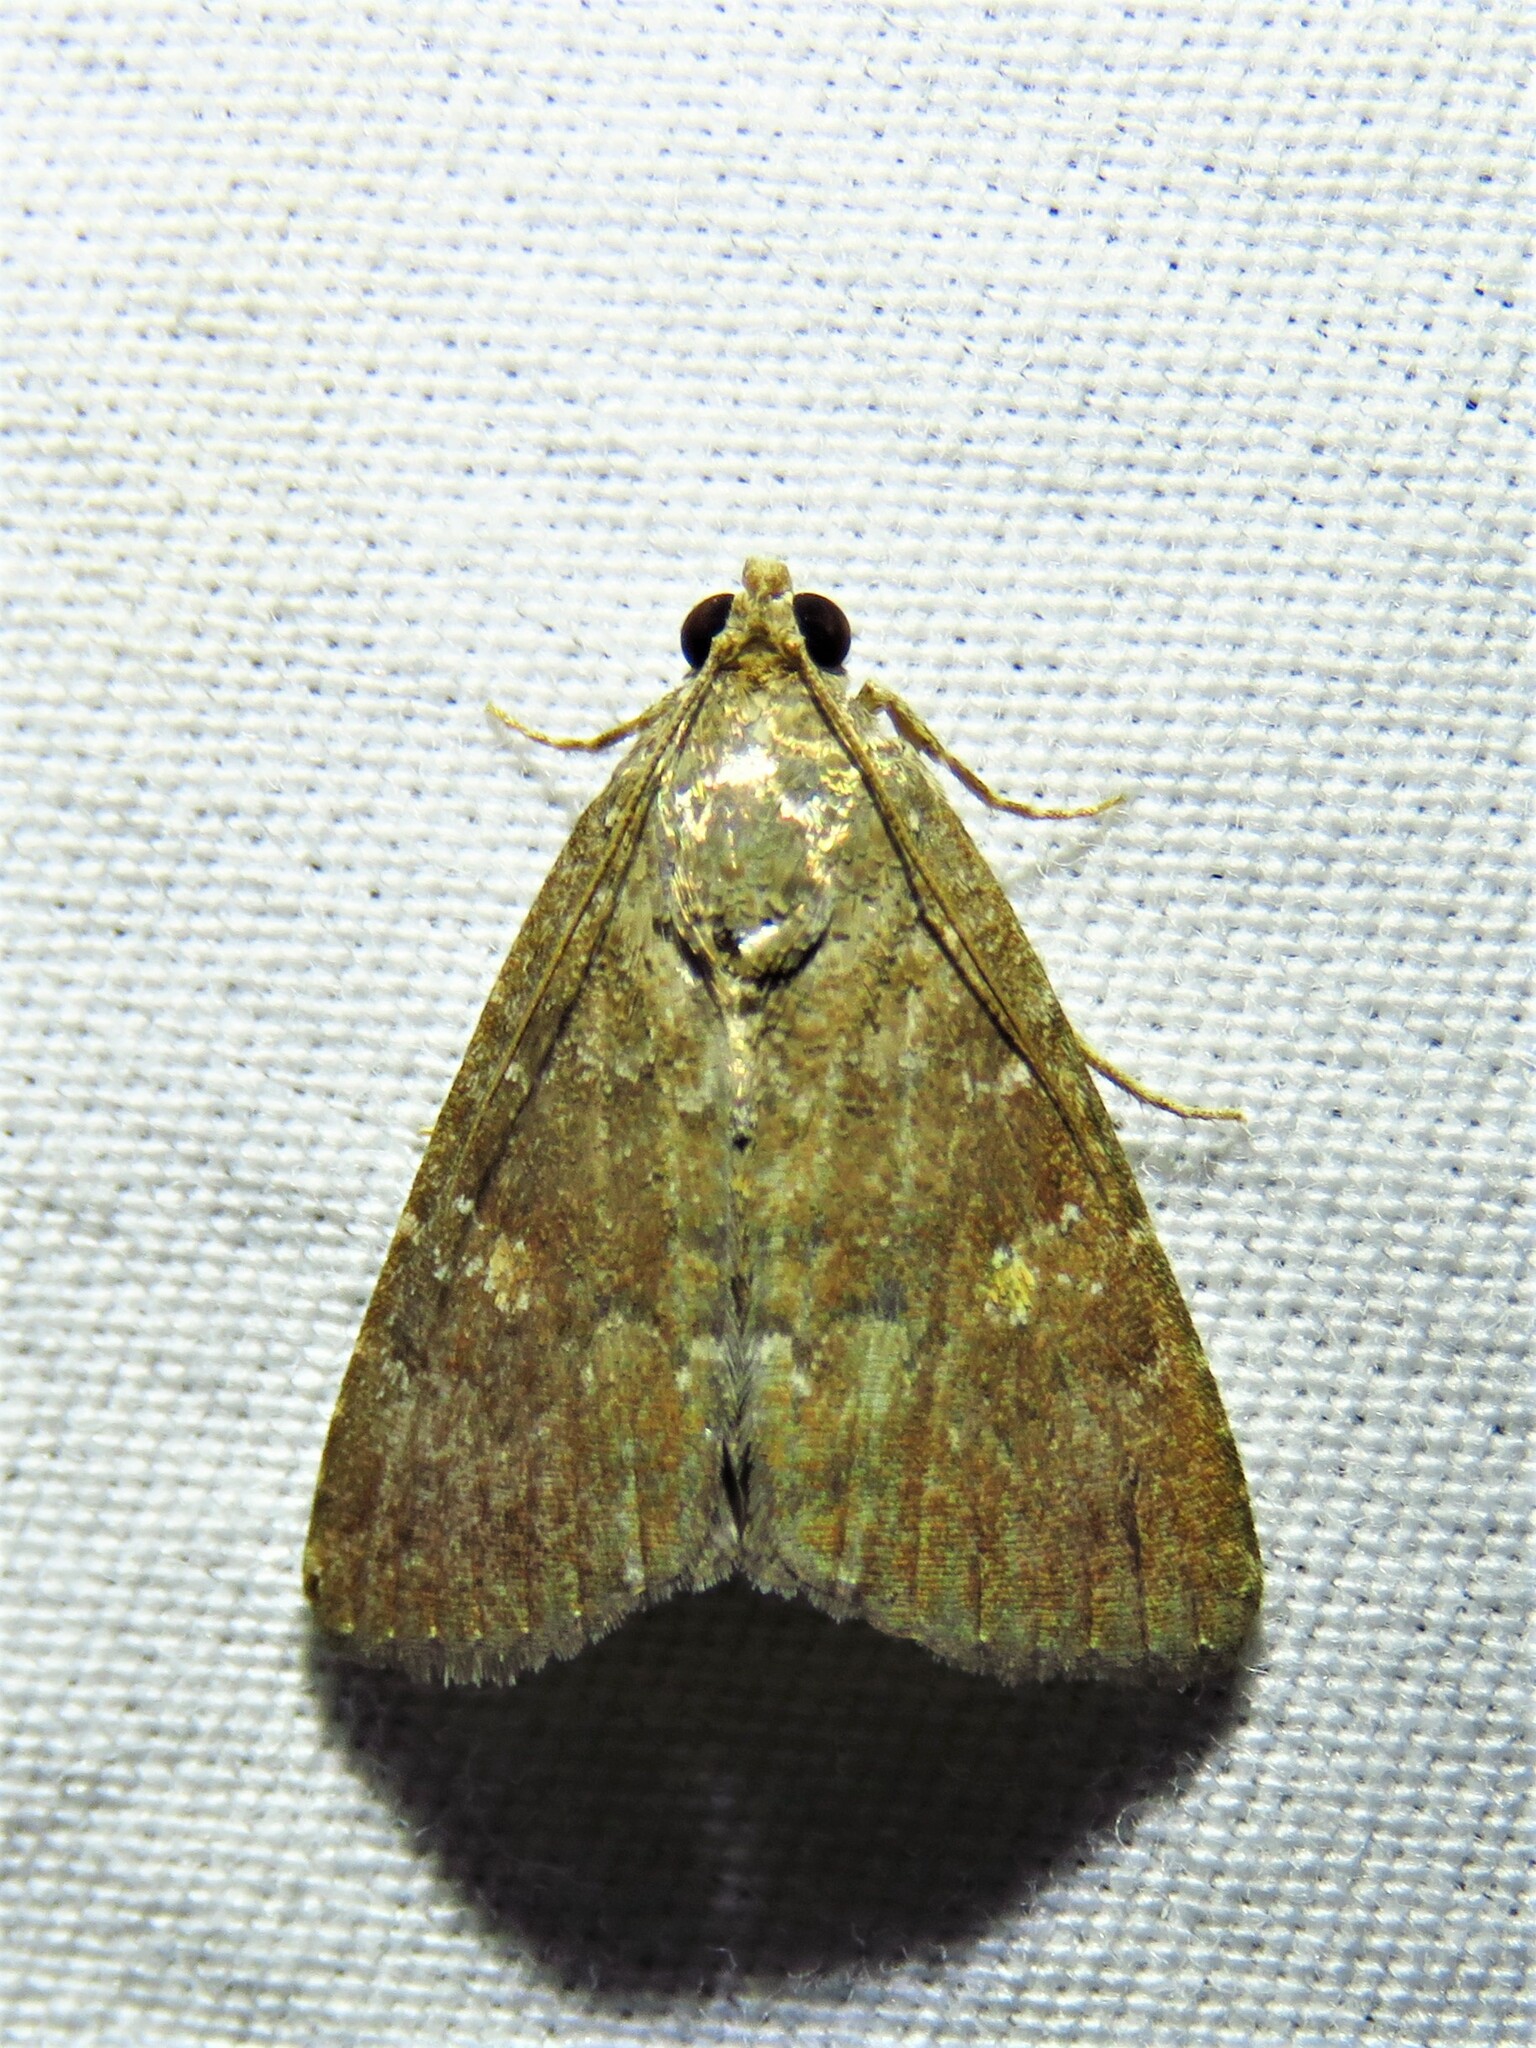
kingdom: Animalia
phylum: Arthropoda
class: Insecta
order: Lepidoptera
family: Noctuidae
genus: Amyna
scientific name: Amyna stricta
